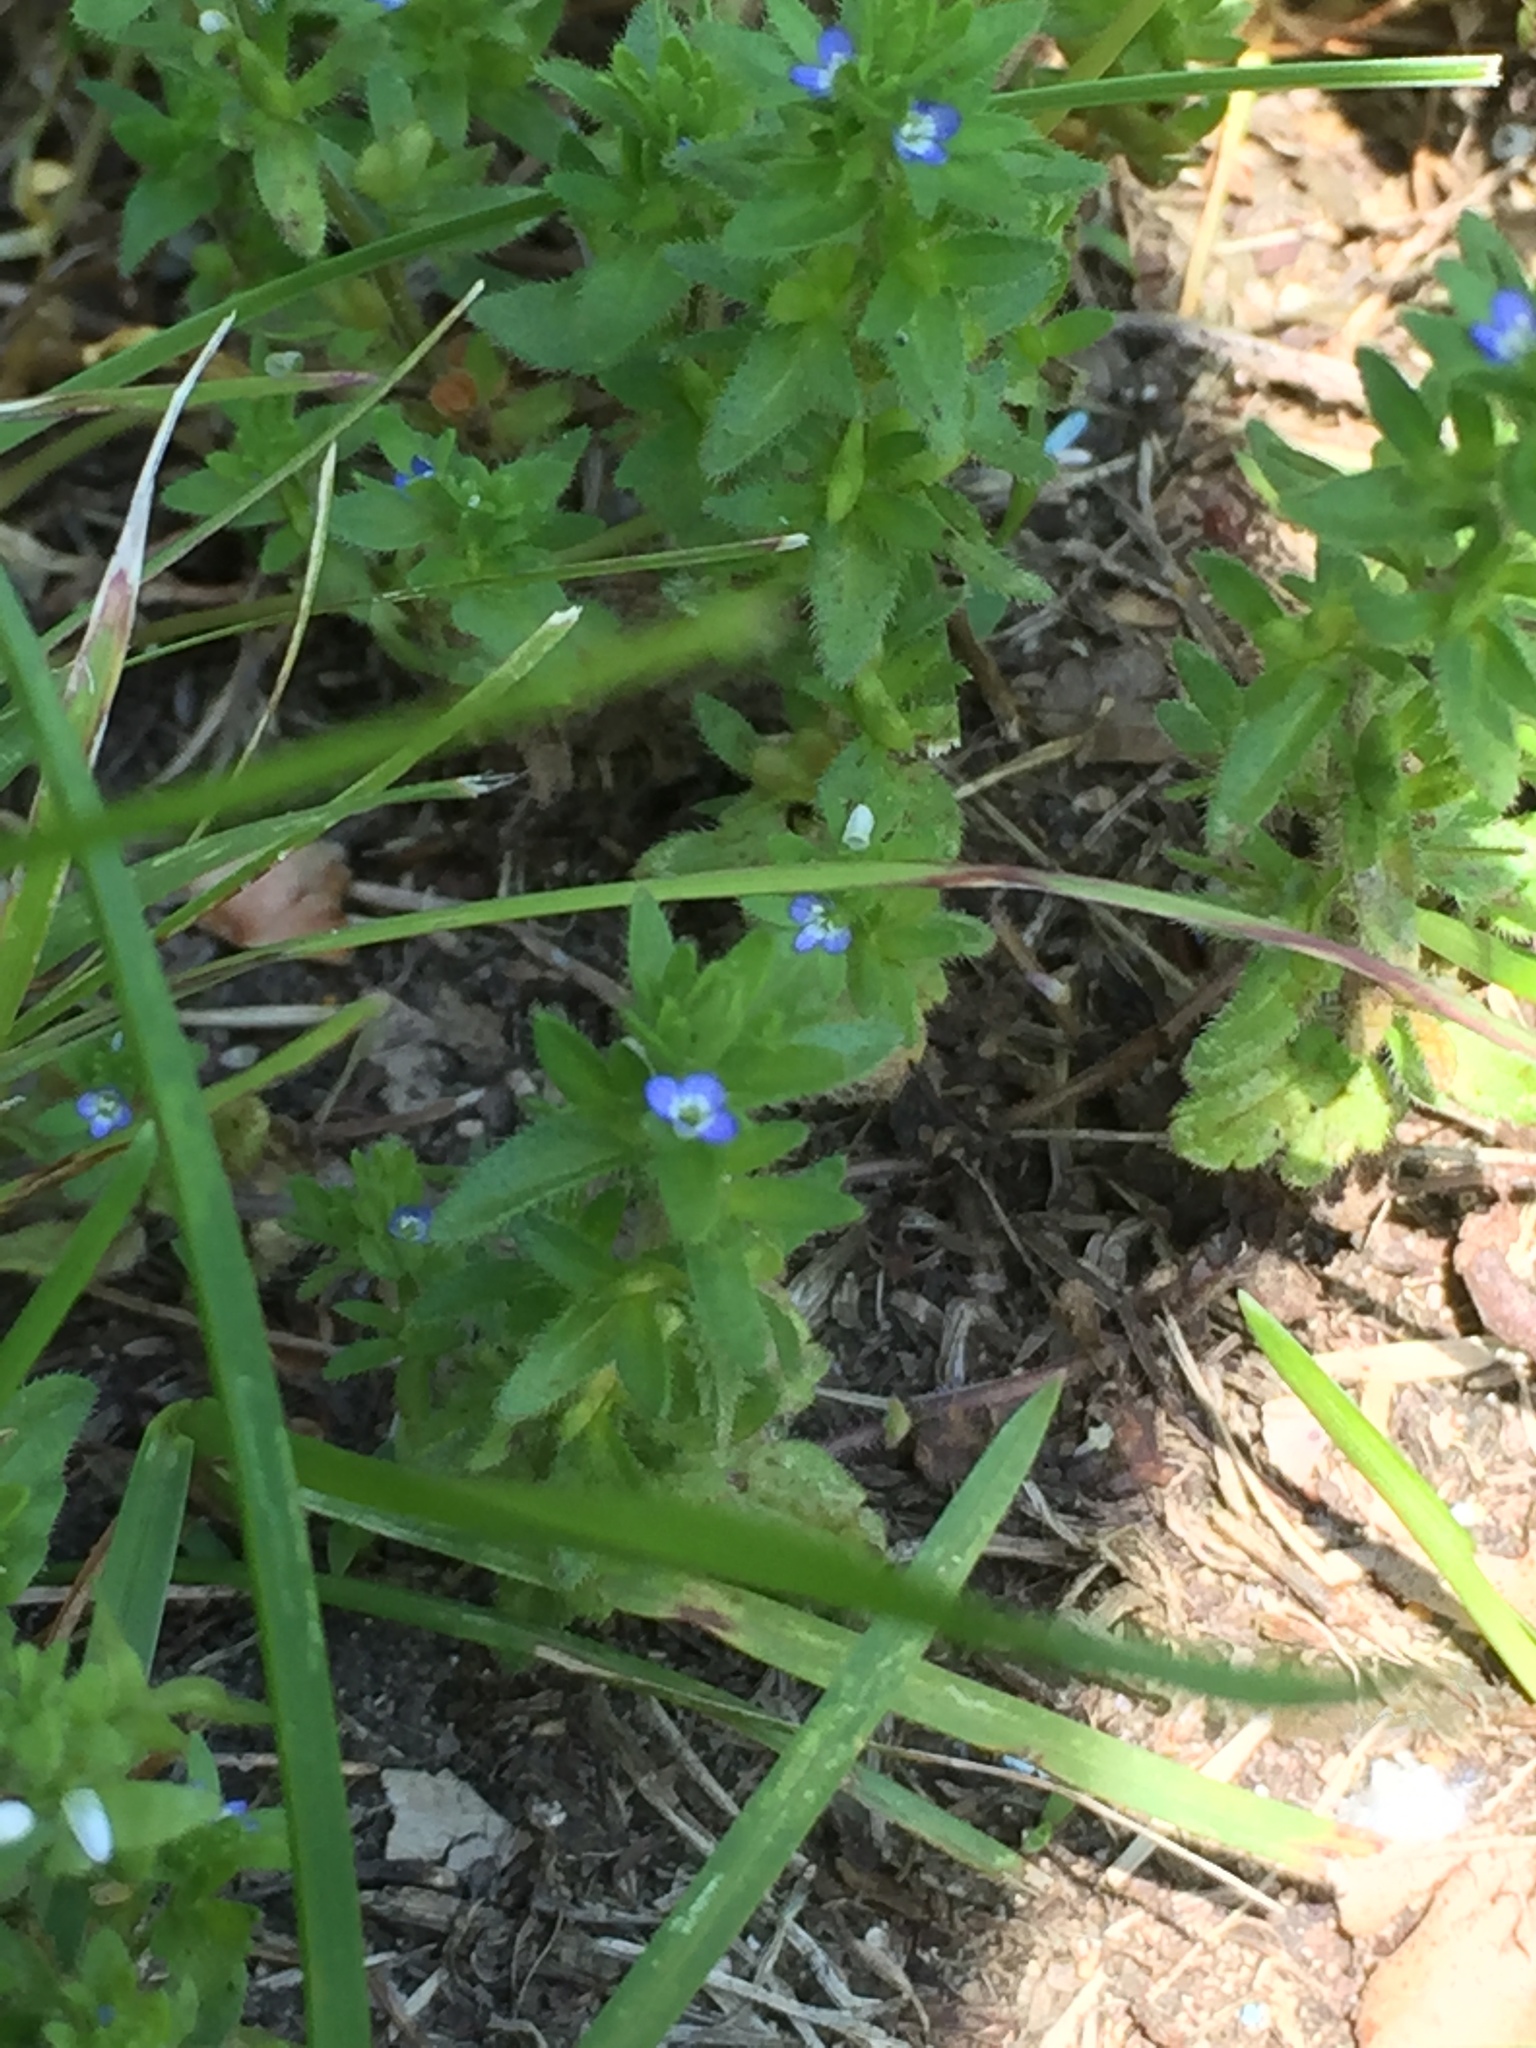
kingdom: Plantae
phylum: Tracheophyta
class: Magnoliopsida
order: Lamiales
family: Plantaginaceae
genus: Veronica
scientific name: Veronica arvensis
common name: Corn speedwell
